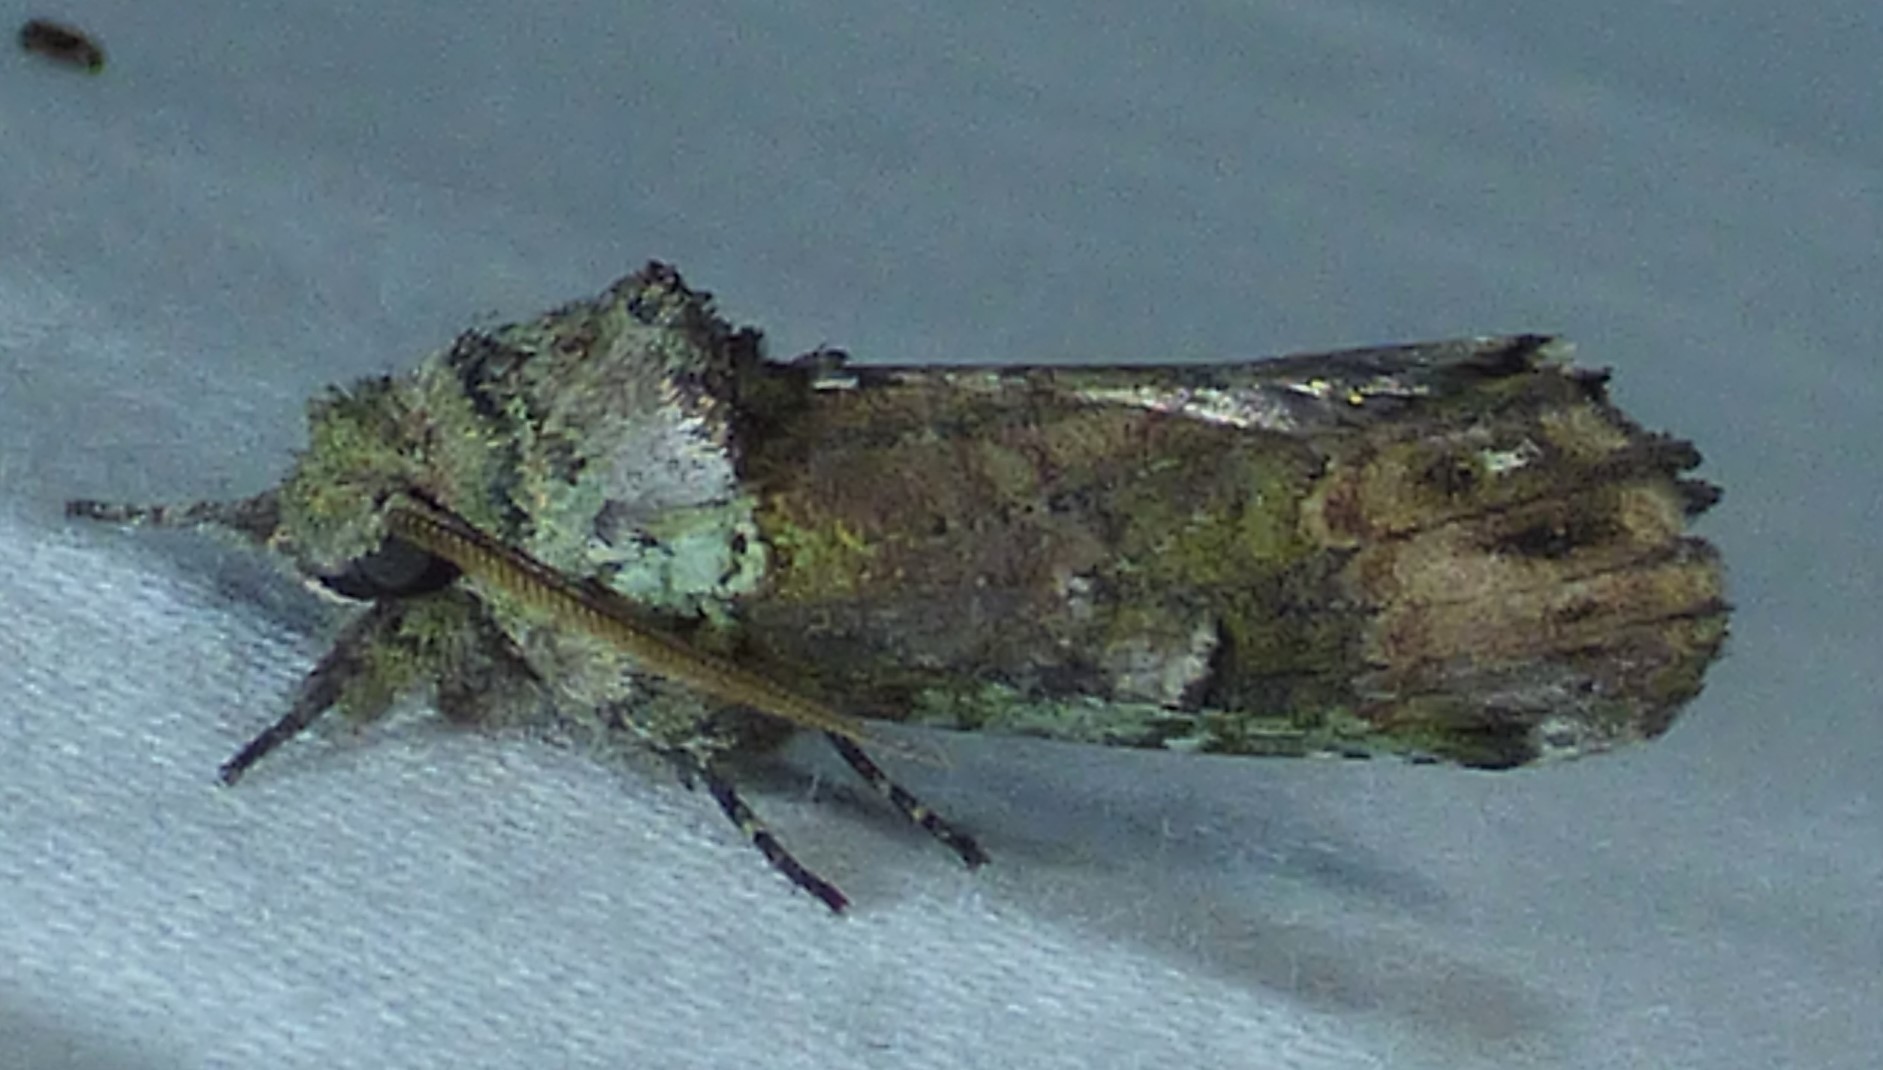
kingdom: Animalia
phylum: Arthropoda
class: Insecta
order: Lepidoptera
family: Notodontidae
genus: Schizura
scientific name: Schizura
